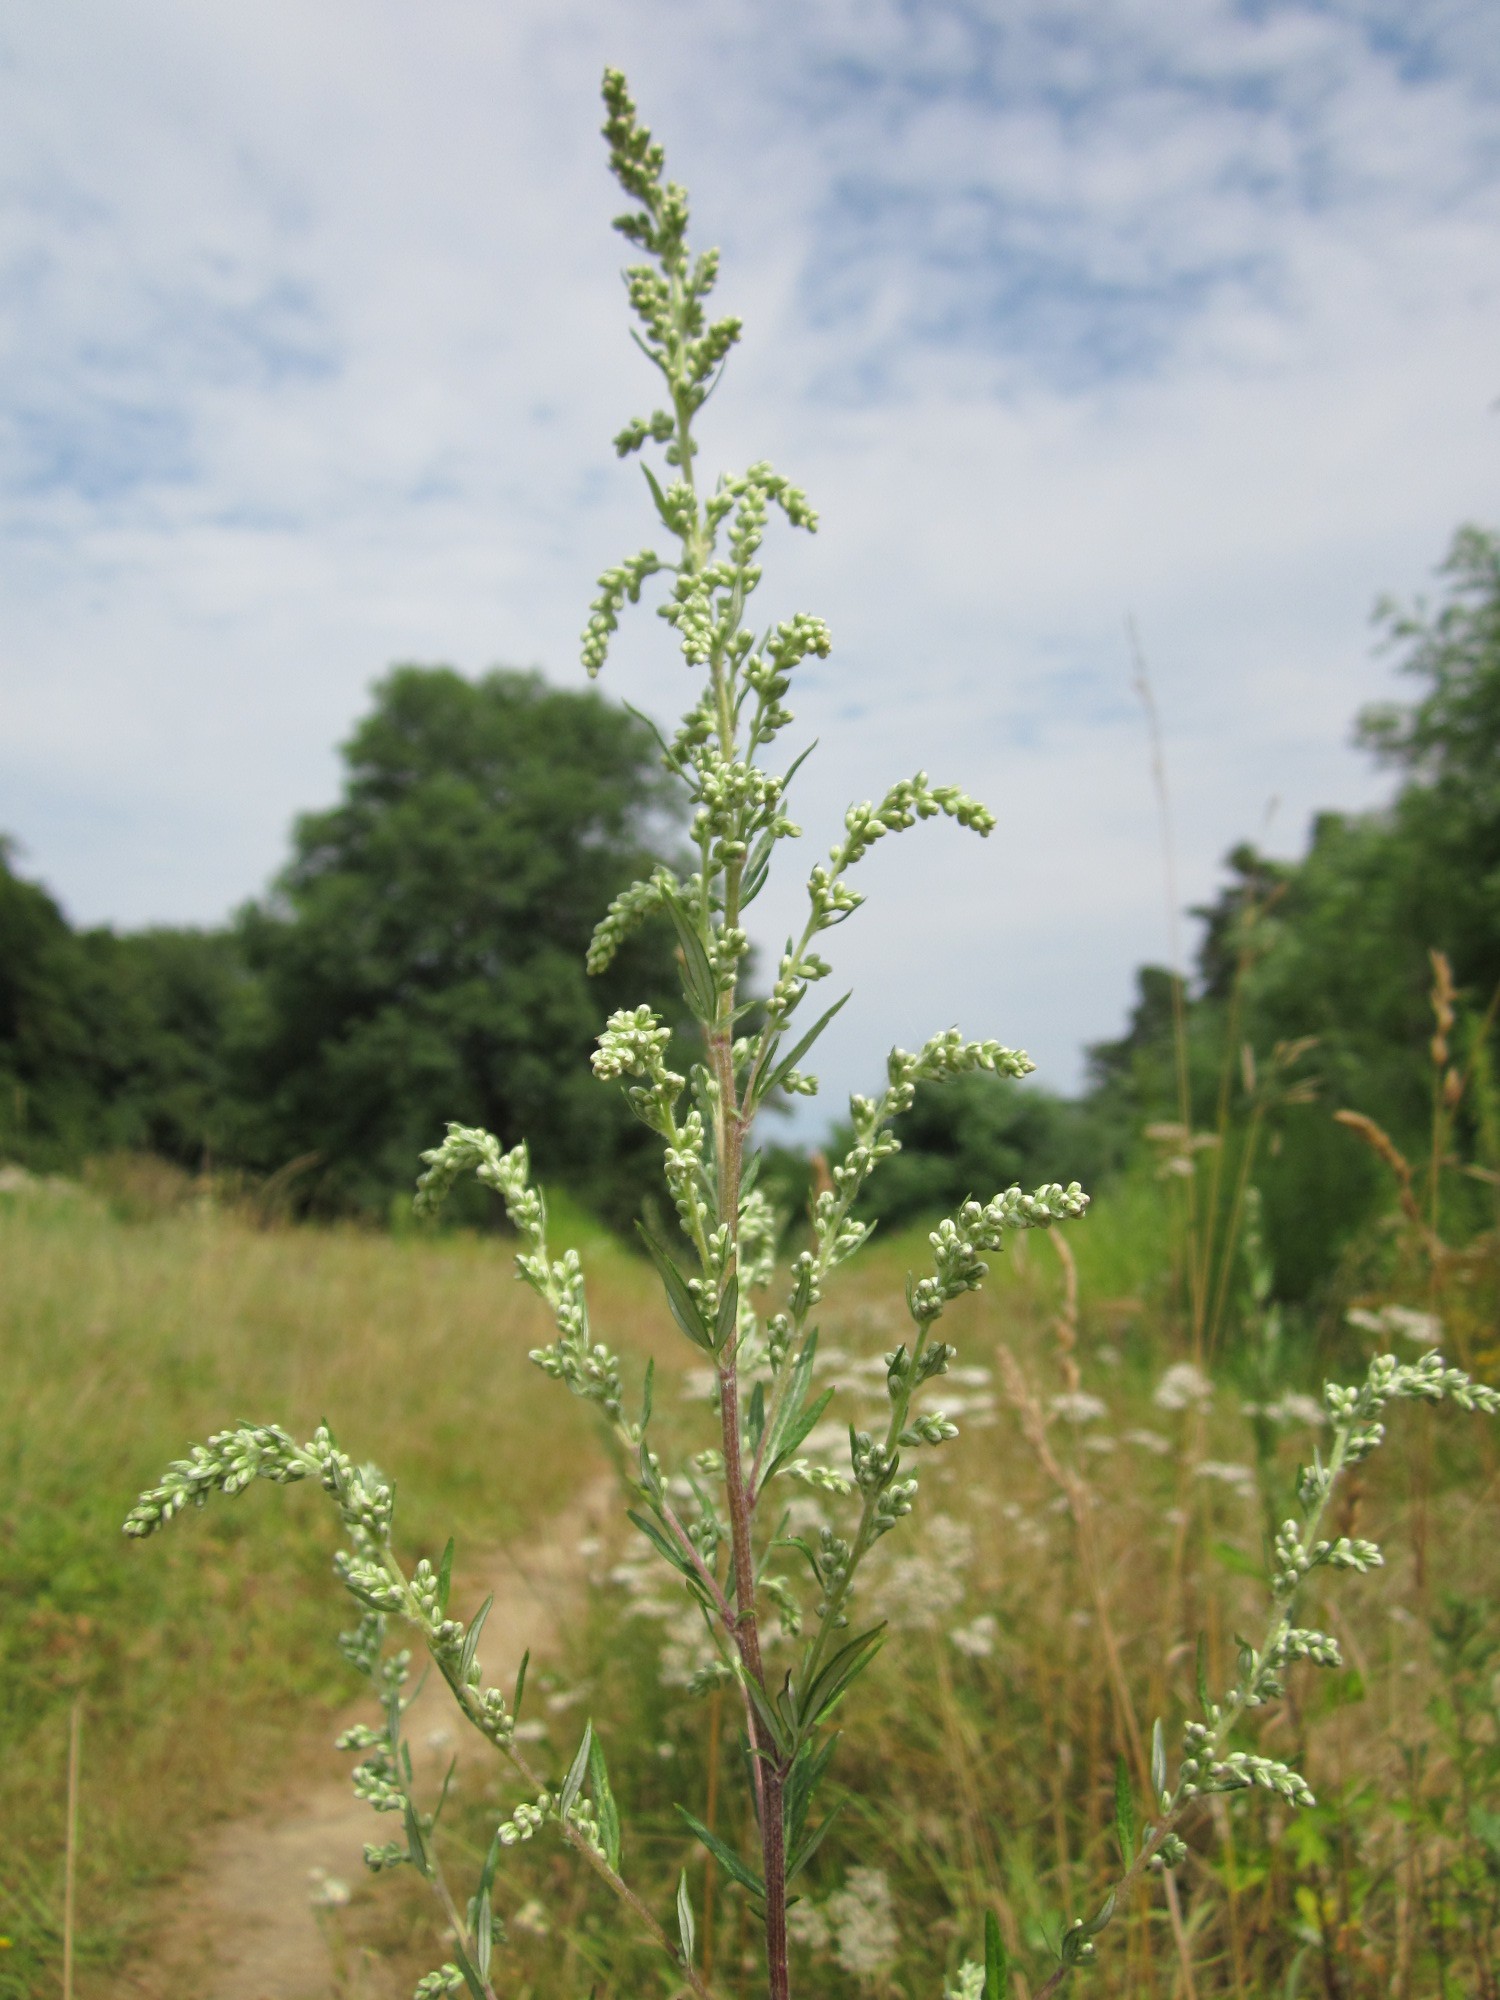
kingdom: Plantae
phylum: Tracheophyta
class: Magnoliopsida
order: Asterales
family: Asteraceae
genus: Artemisia
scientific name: Artemisia vulgaris
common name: Mugwort
